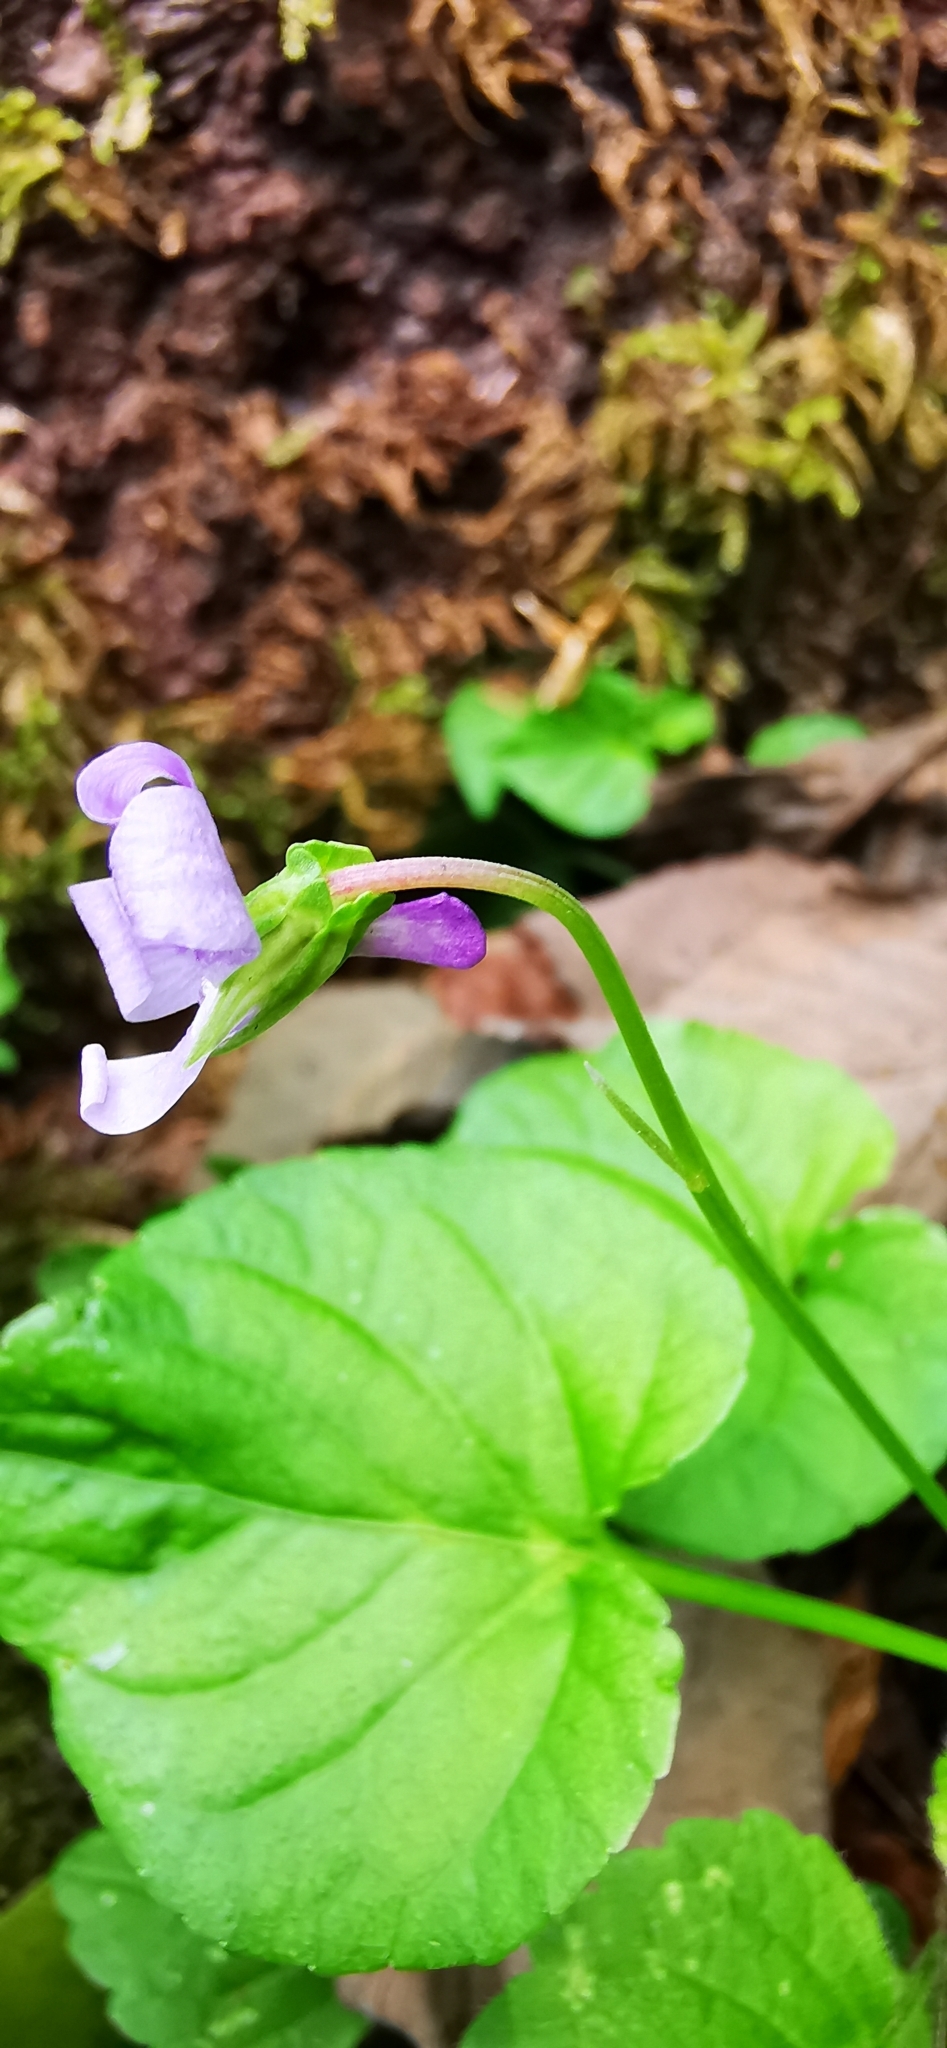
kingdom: Plantae
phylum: Tracheophyta
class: Magnoliopsida
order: Malpighiales
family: Violaceae
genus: Viola
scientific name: Viola reichenbachiana
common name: Early dog-violet
